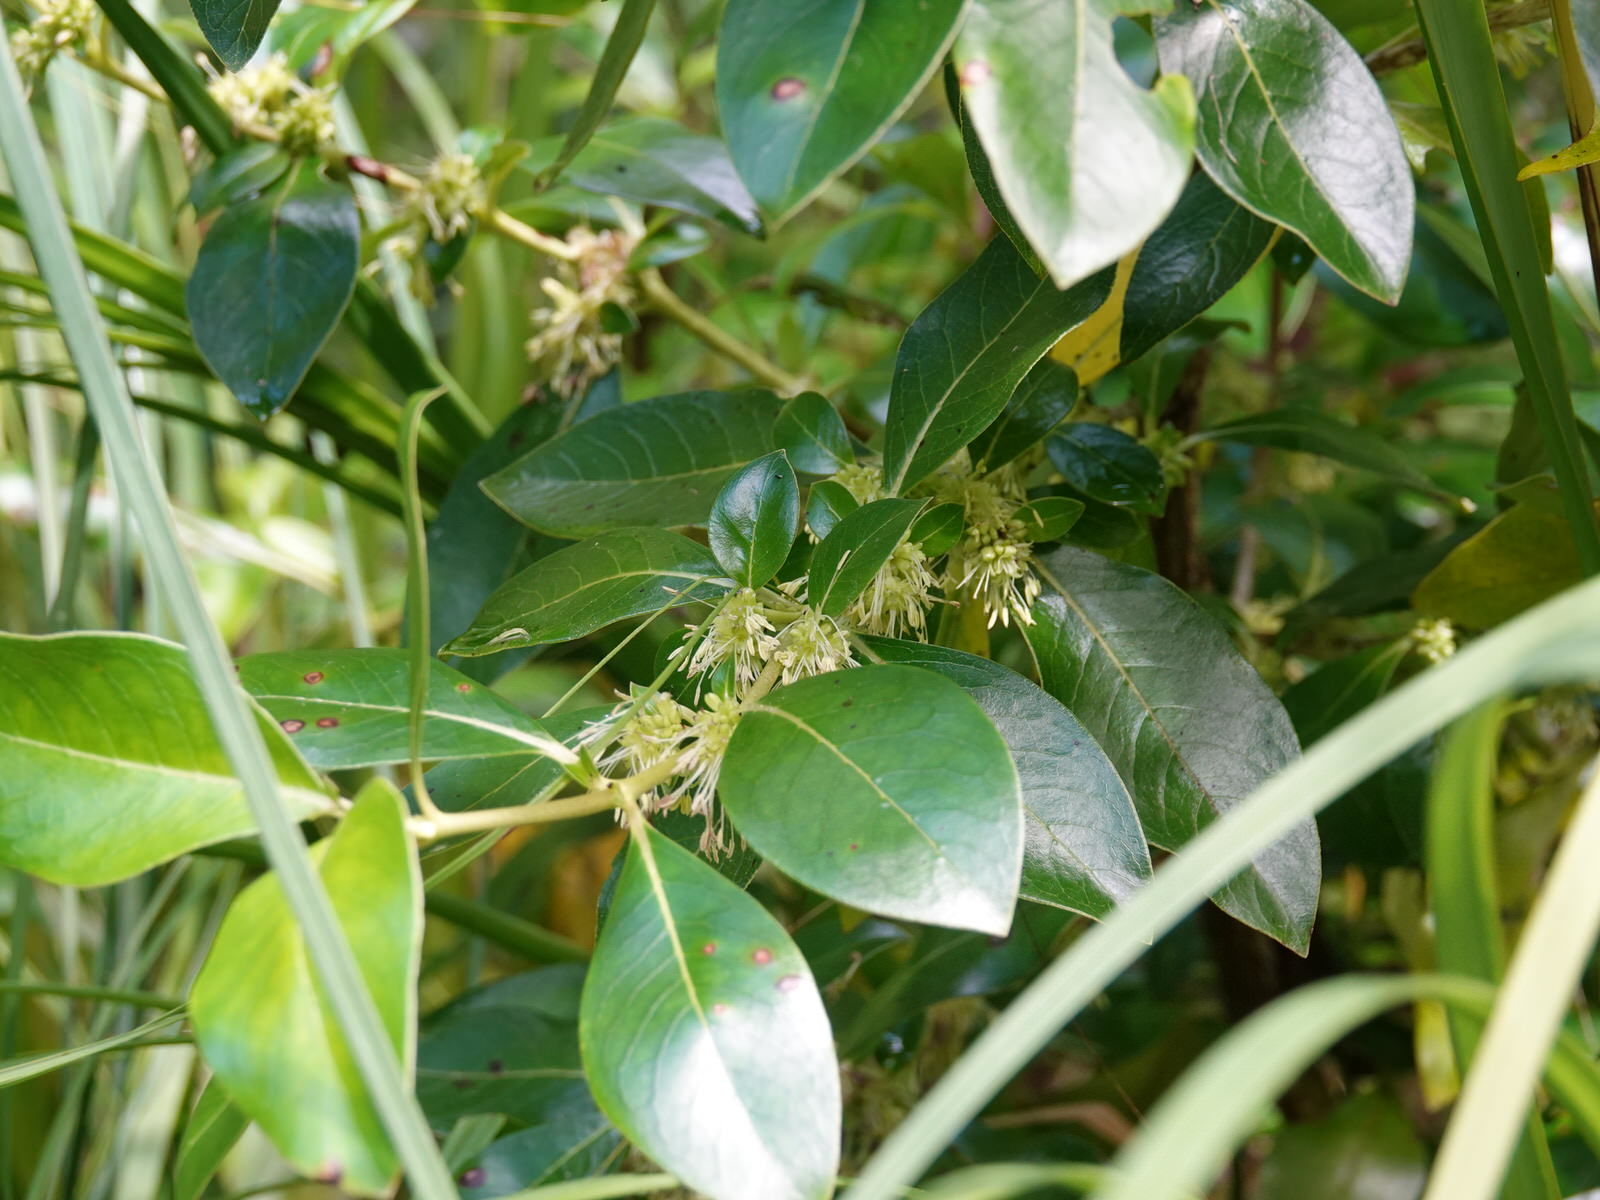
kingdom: Plantae
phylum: Tracheophyta
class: Magnoliopsida
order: Gentianales
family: Rubiaceae
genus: Coprosma
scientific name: Coprosma robusta
